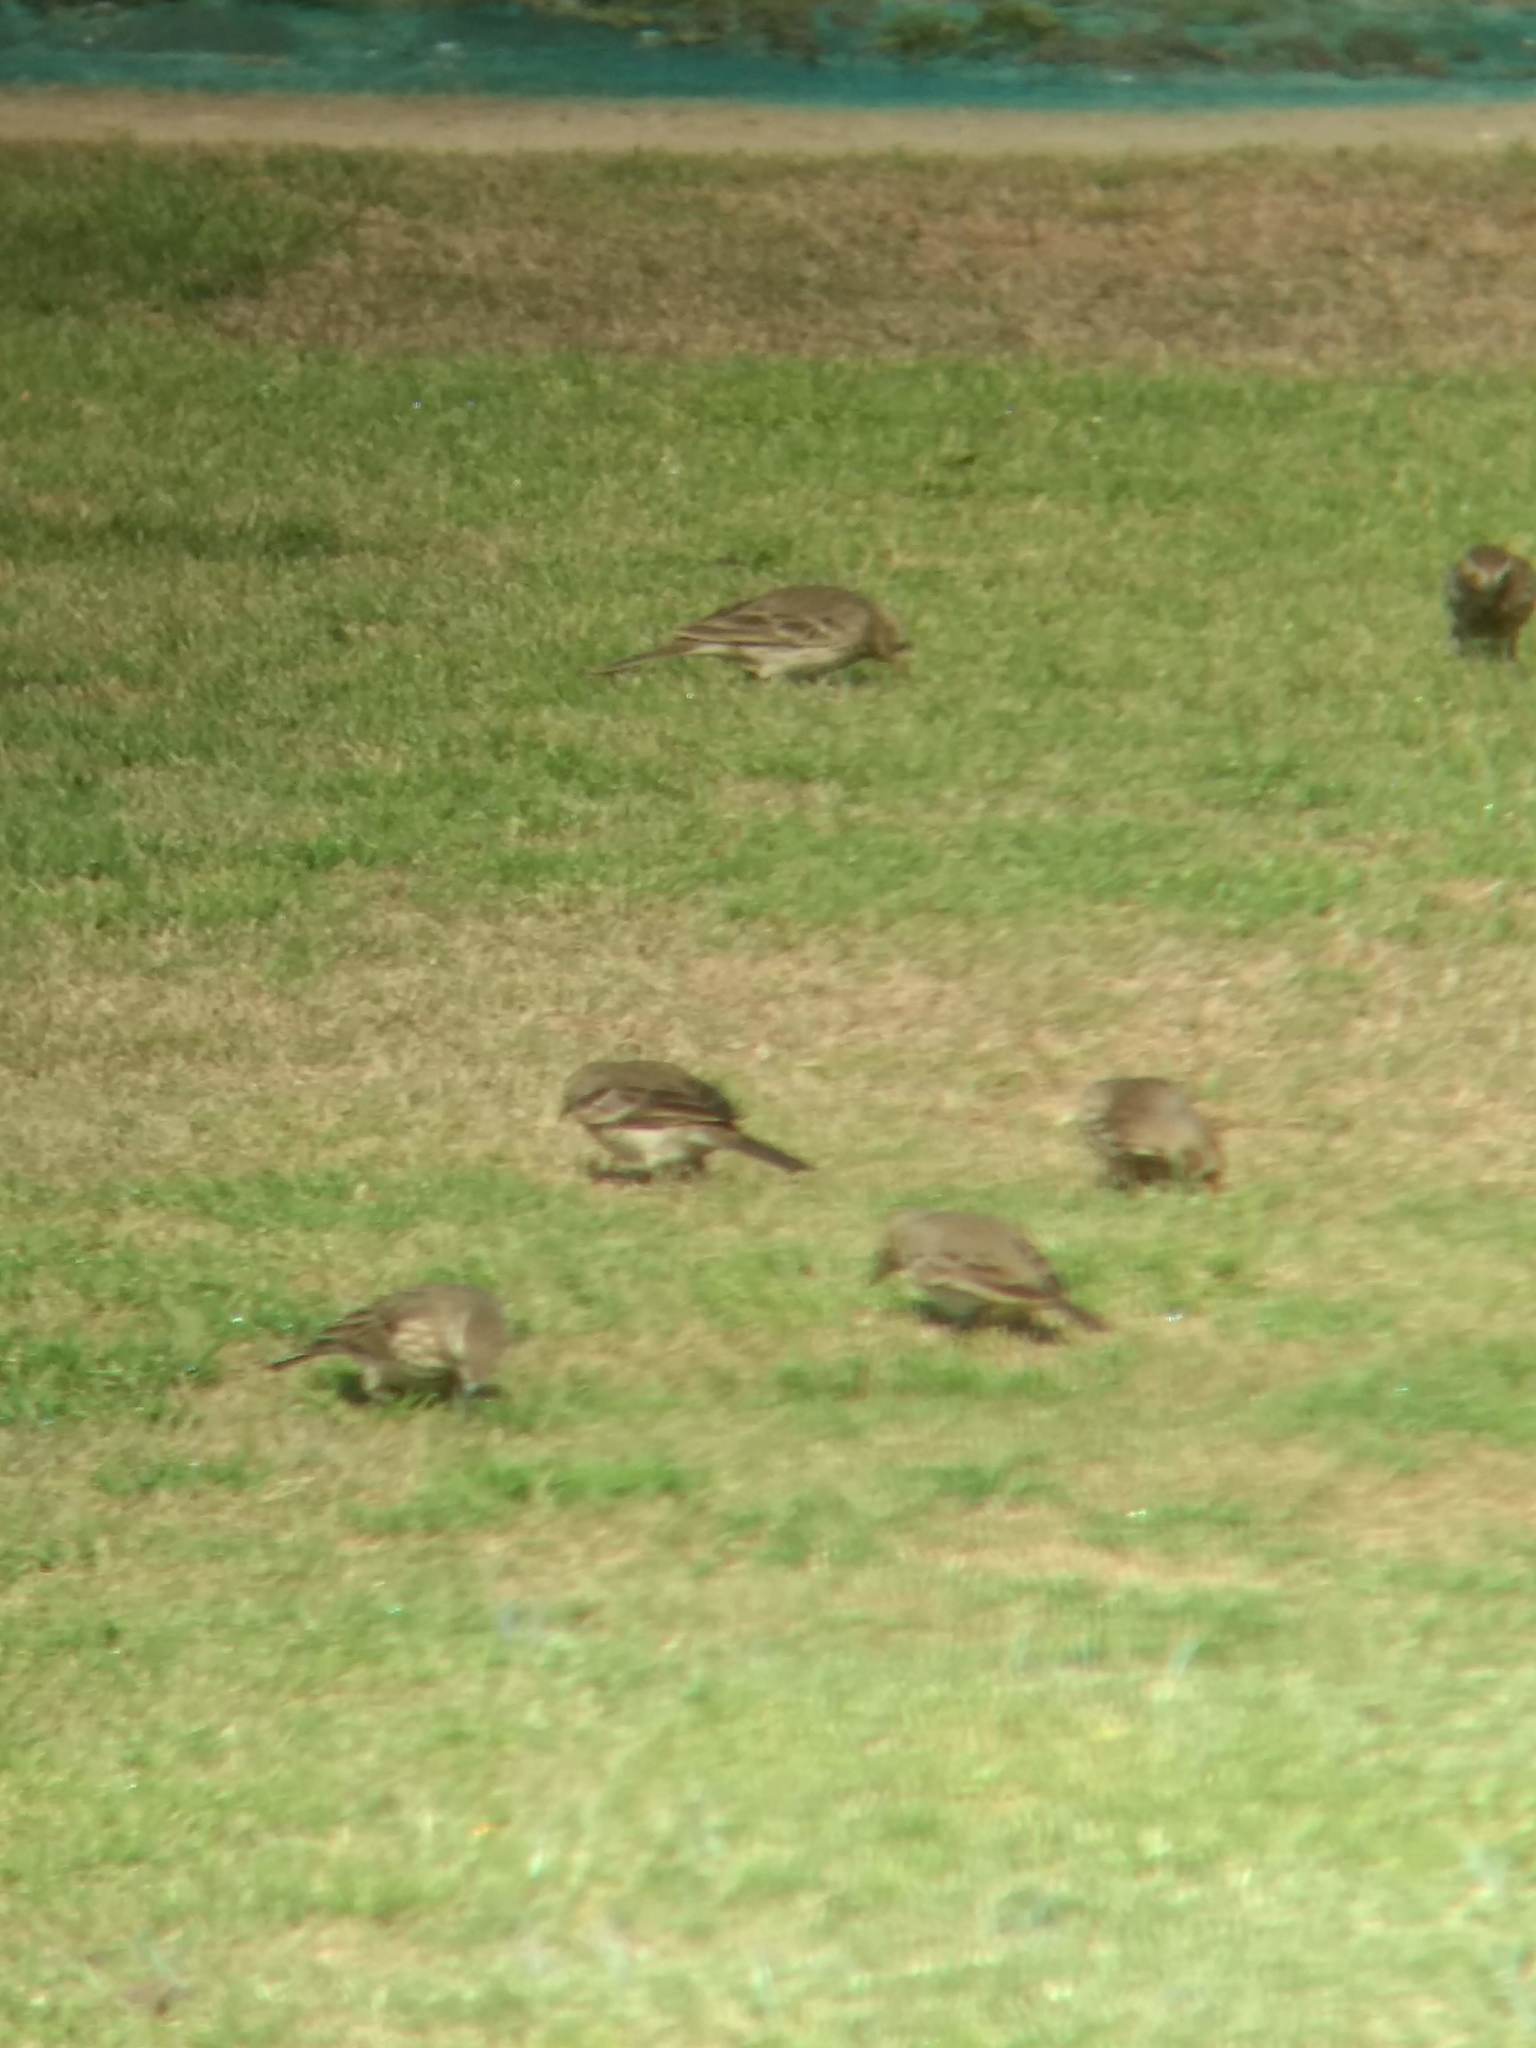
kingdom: Animalia
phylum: Chordata
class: Aves
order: Passeriformes
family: Motacillidae
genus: Anthus
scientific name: Anthus rubescens
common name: Buff-bellied pipit
